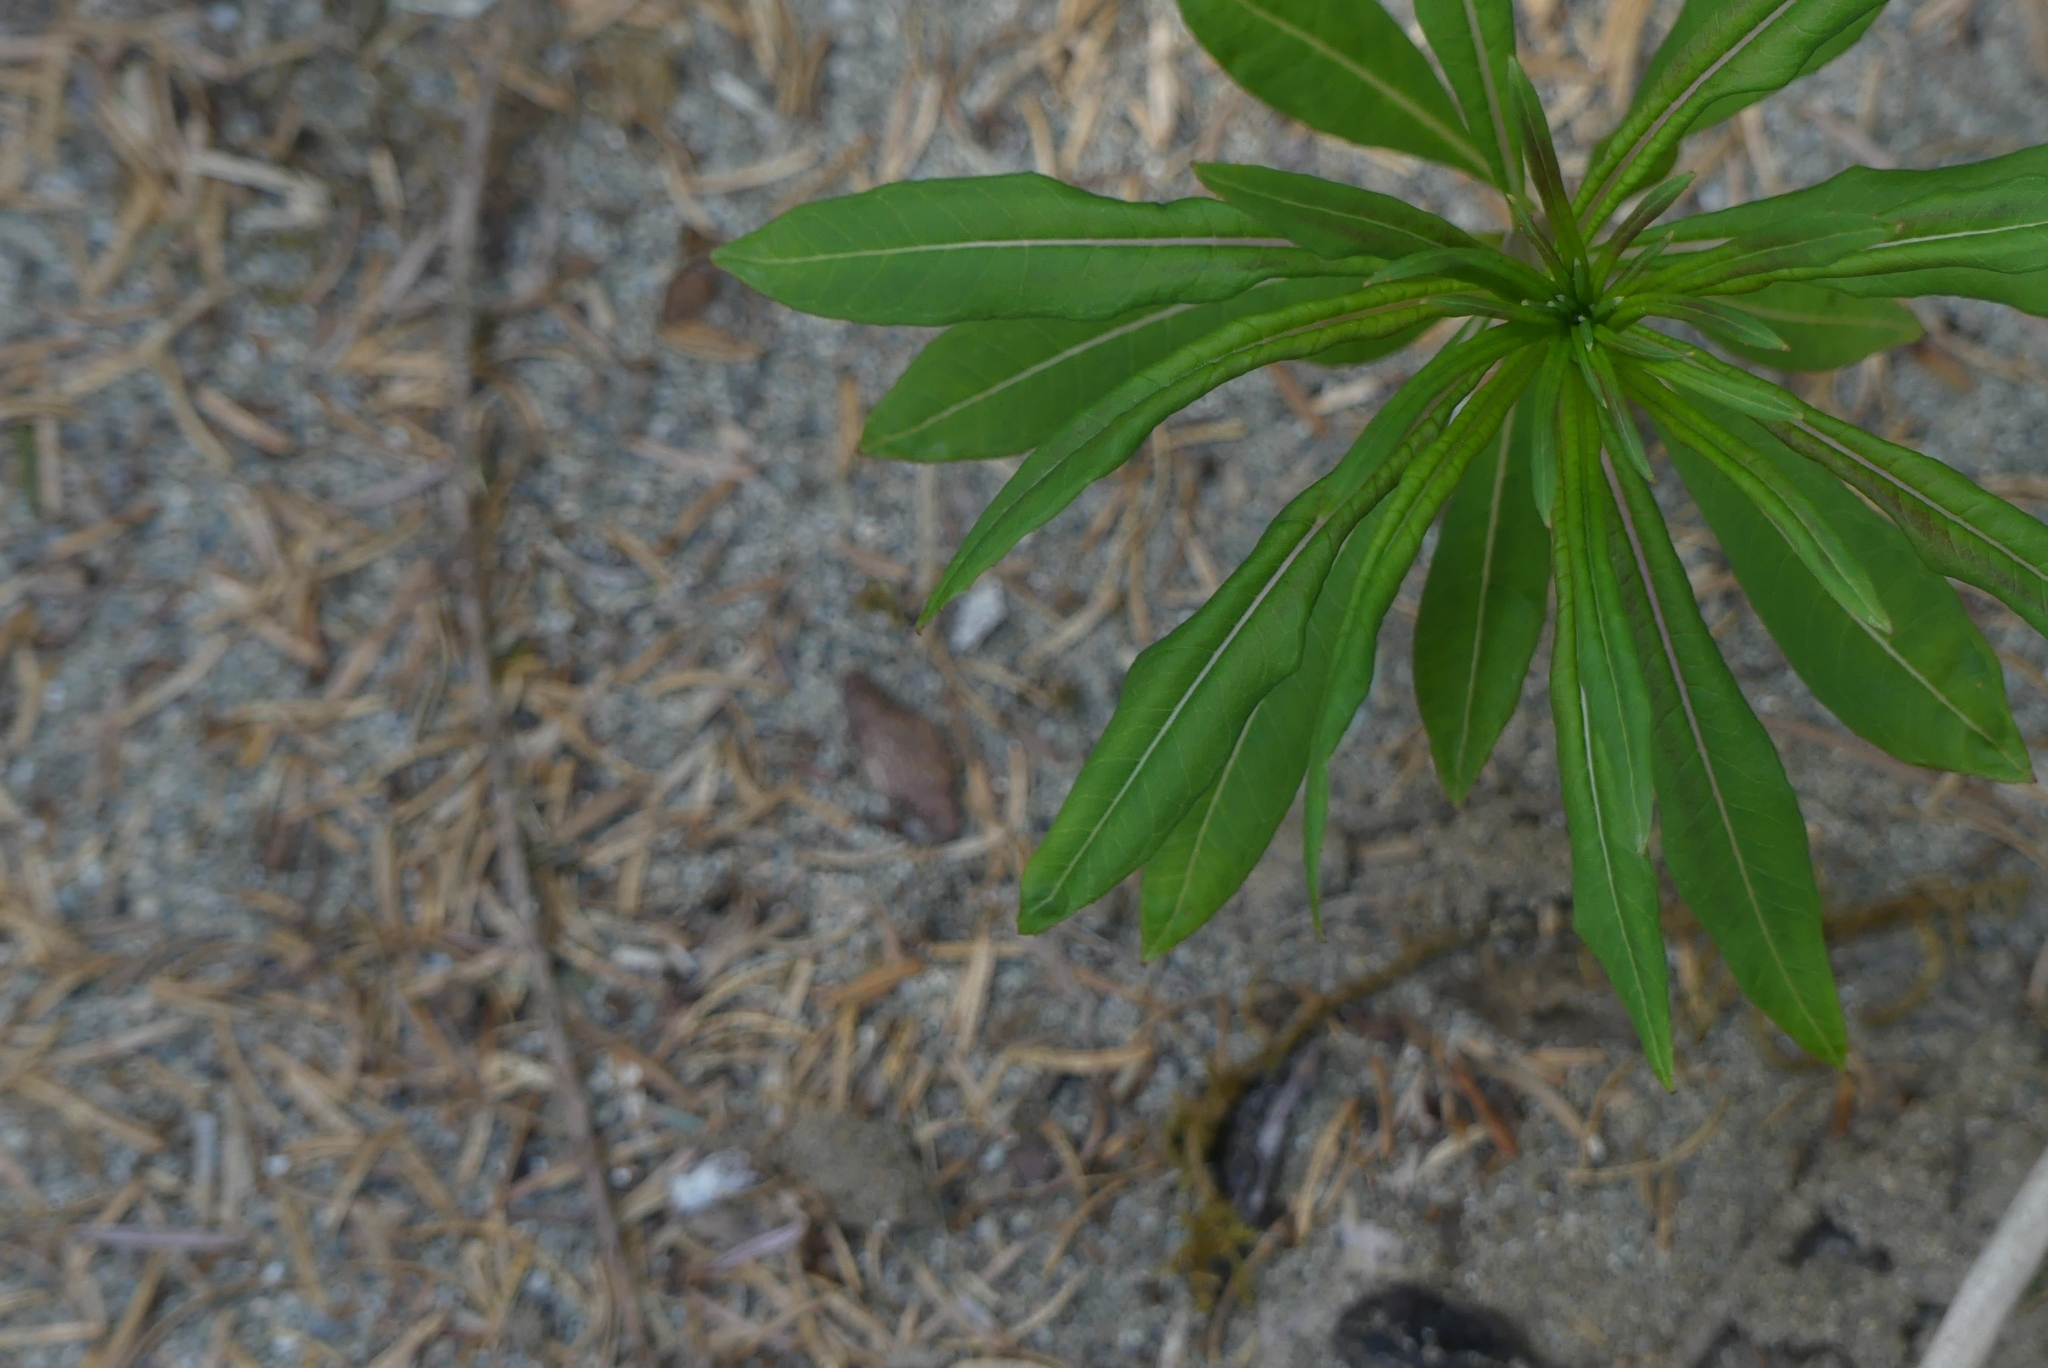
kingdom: Plantae
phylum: Tracheophyta
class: Magnoliopsida
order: Myrtales
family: Onagraceae
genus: Chamaenerion
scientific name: Chamaenerion angustifolium
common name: Fireweed
